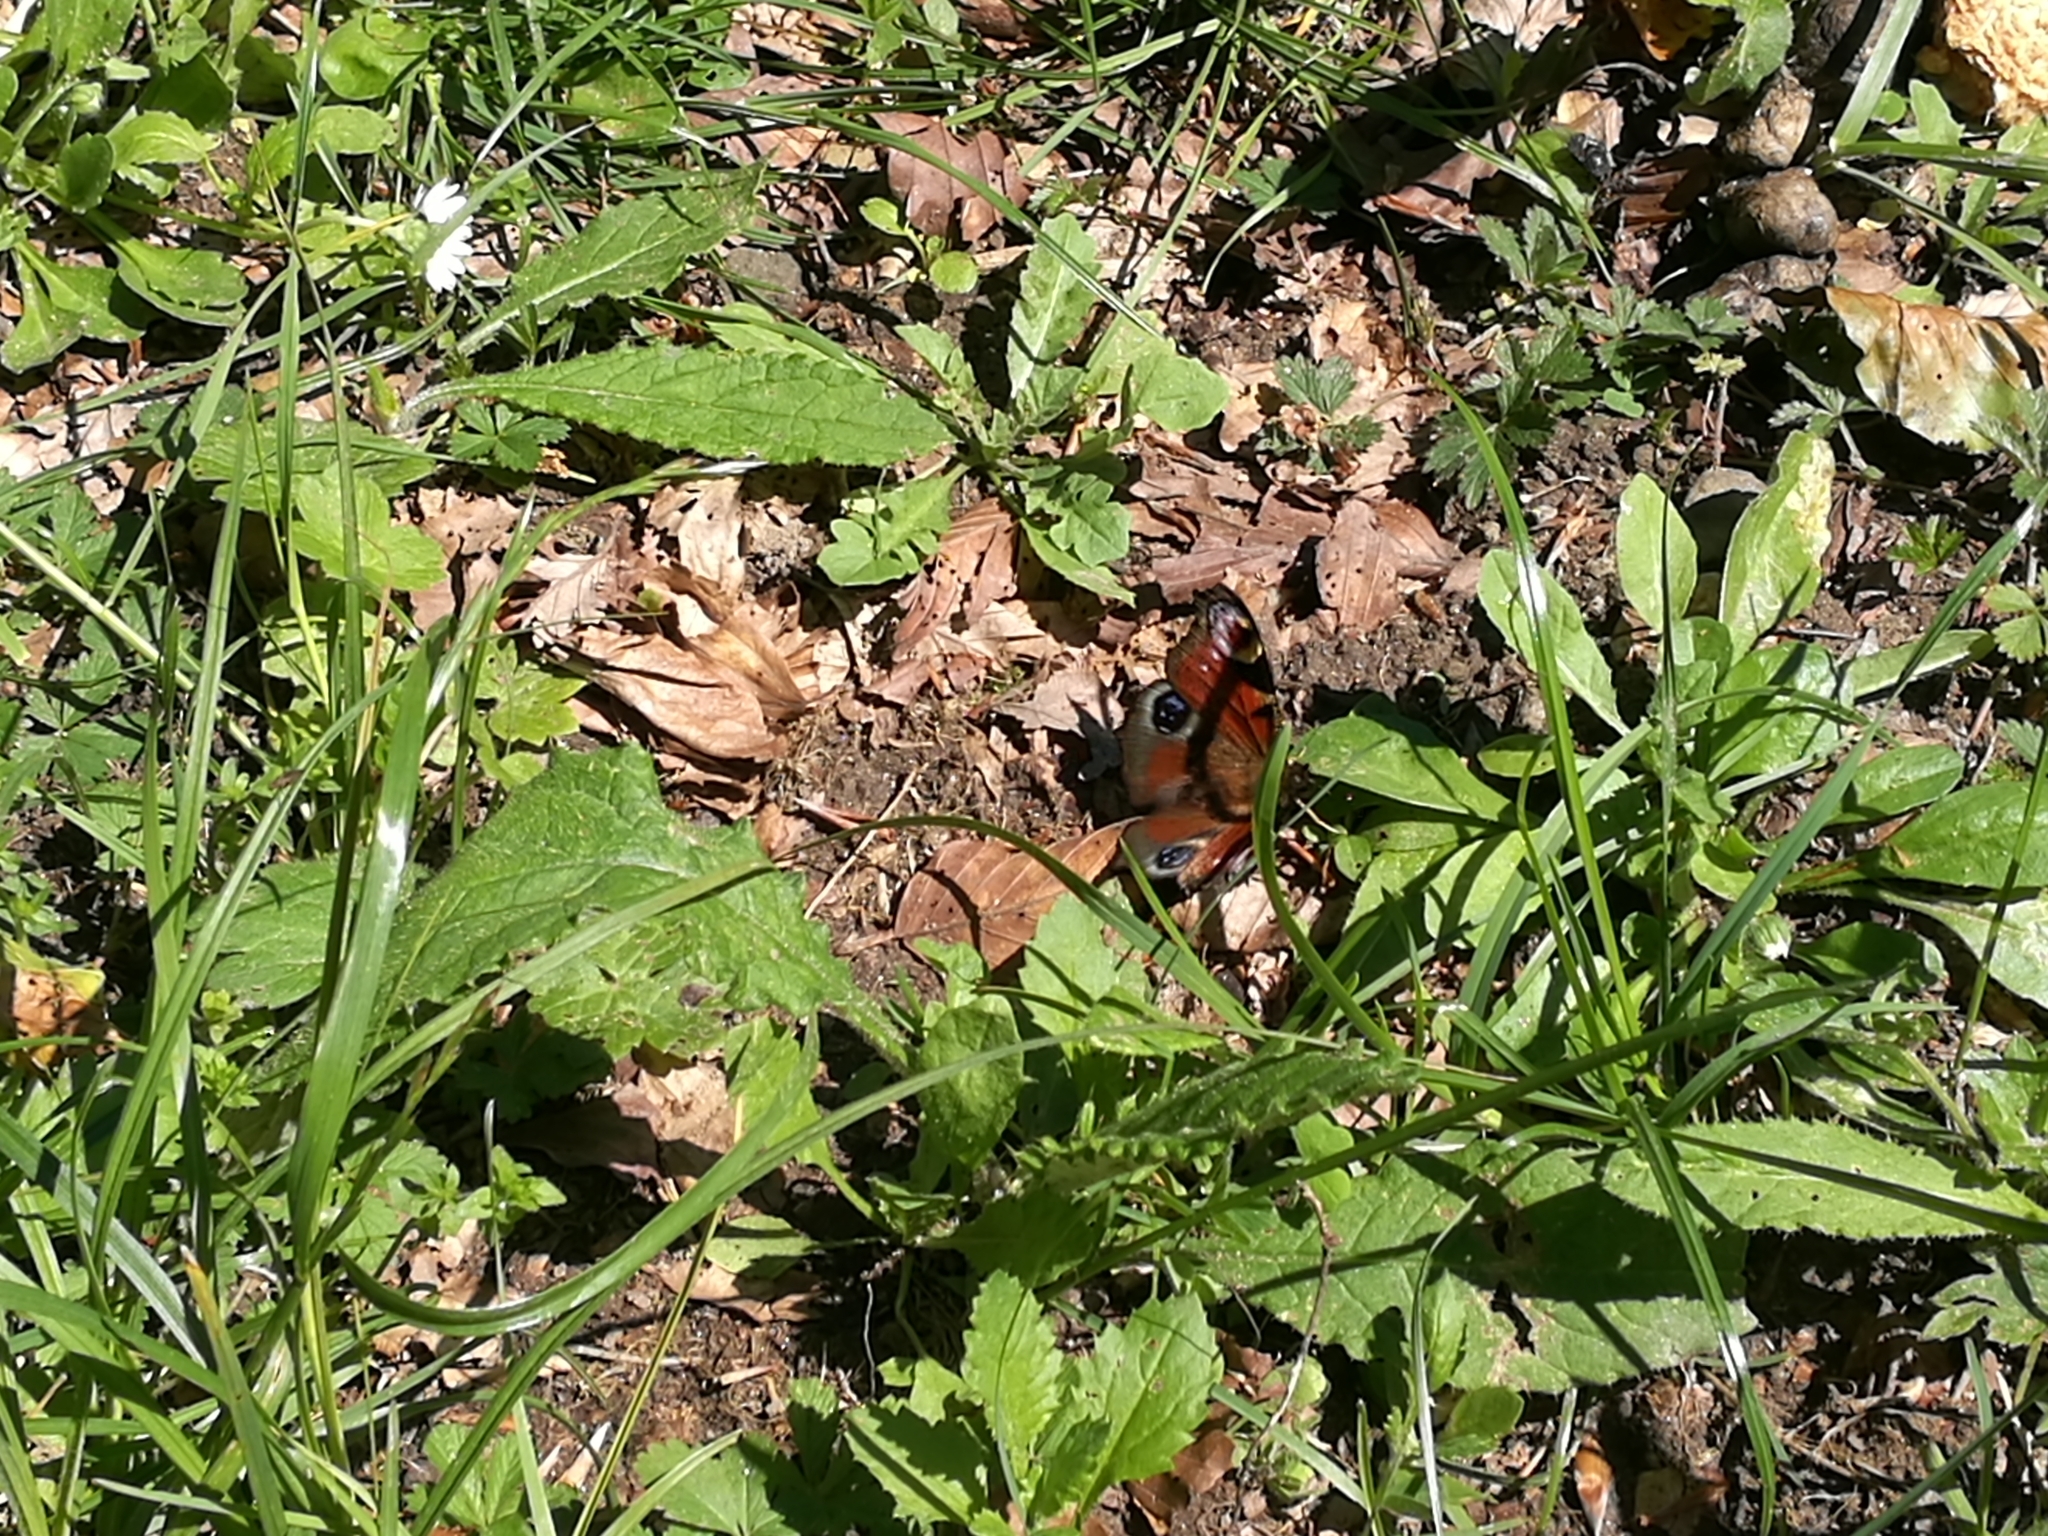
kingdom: Animalia
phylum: Arthropoda
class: Insecta
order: Lepidoptera
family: Nymphalidae
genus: Aglais
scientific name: Aglais io
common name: Peacock
